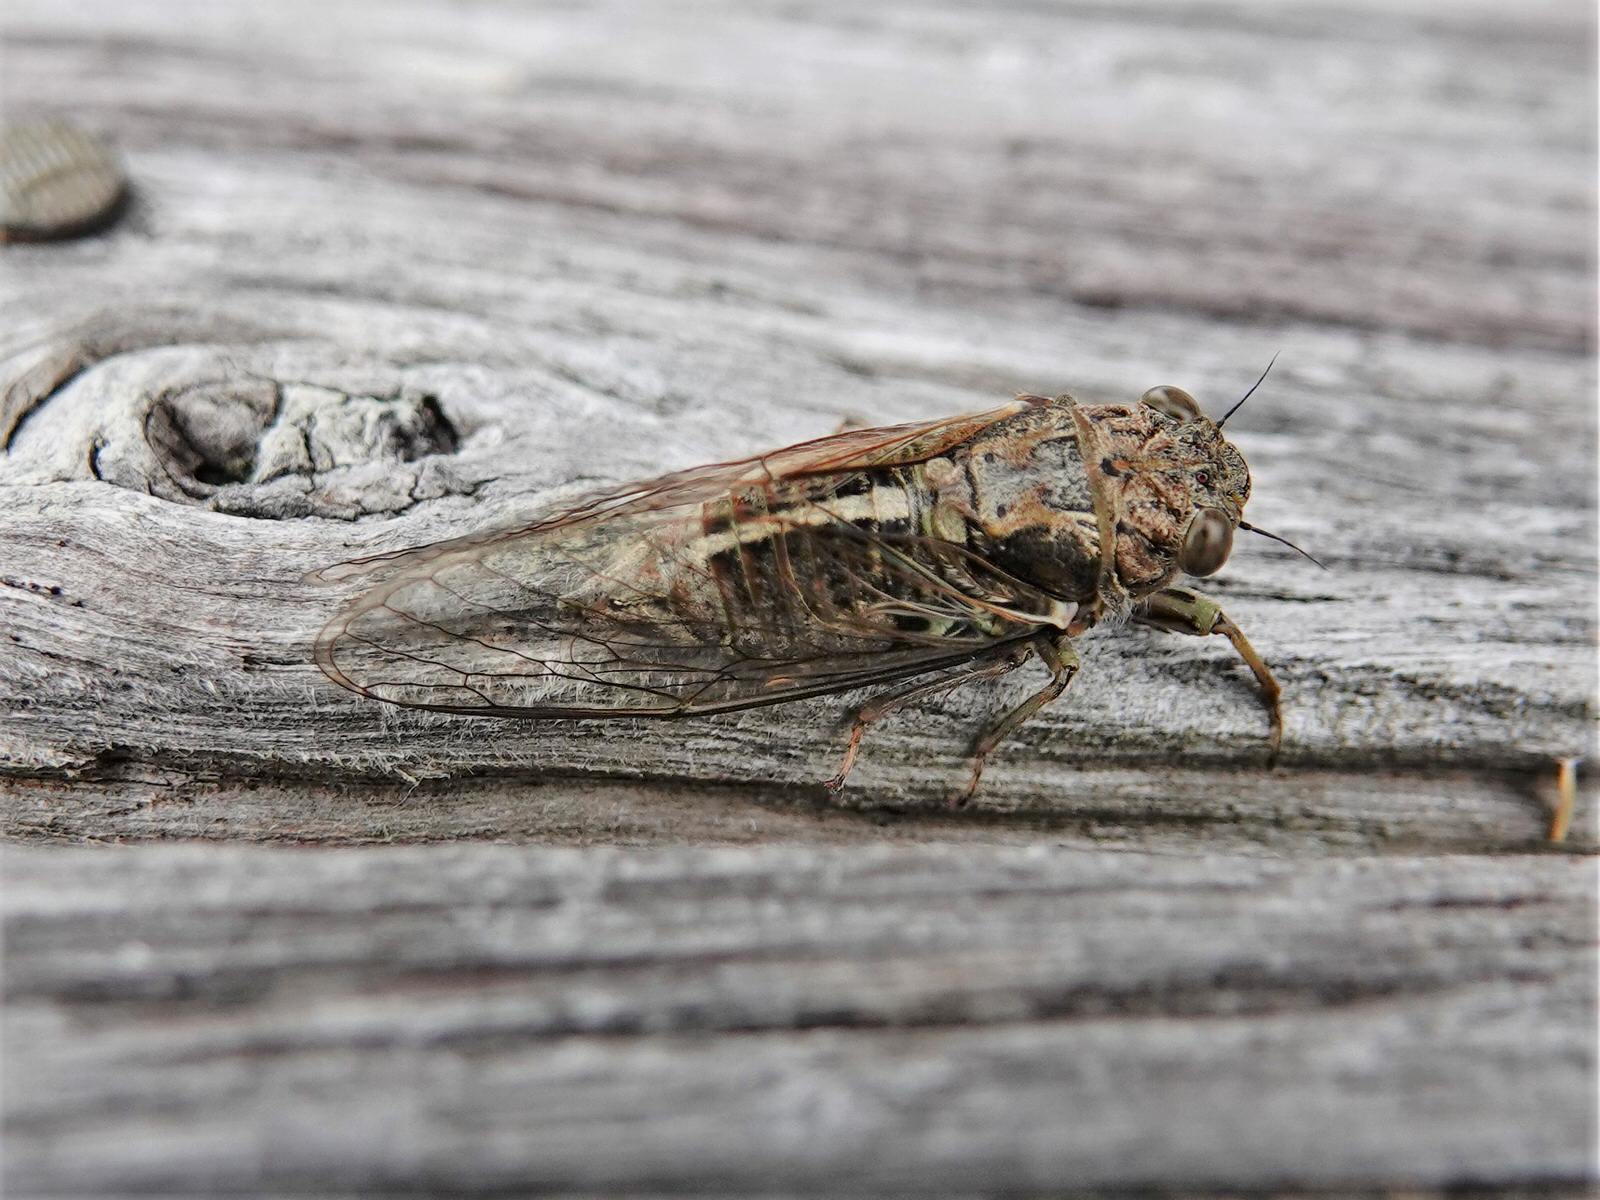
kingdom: Animalia
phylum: Arthropoda
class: Insecta
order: Hemiptera
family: Cicadidae
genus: Notopsalta
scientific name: Notopsalta sericea
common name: Clay bank cicada
